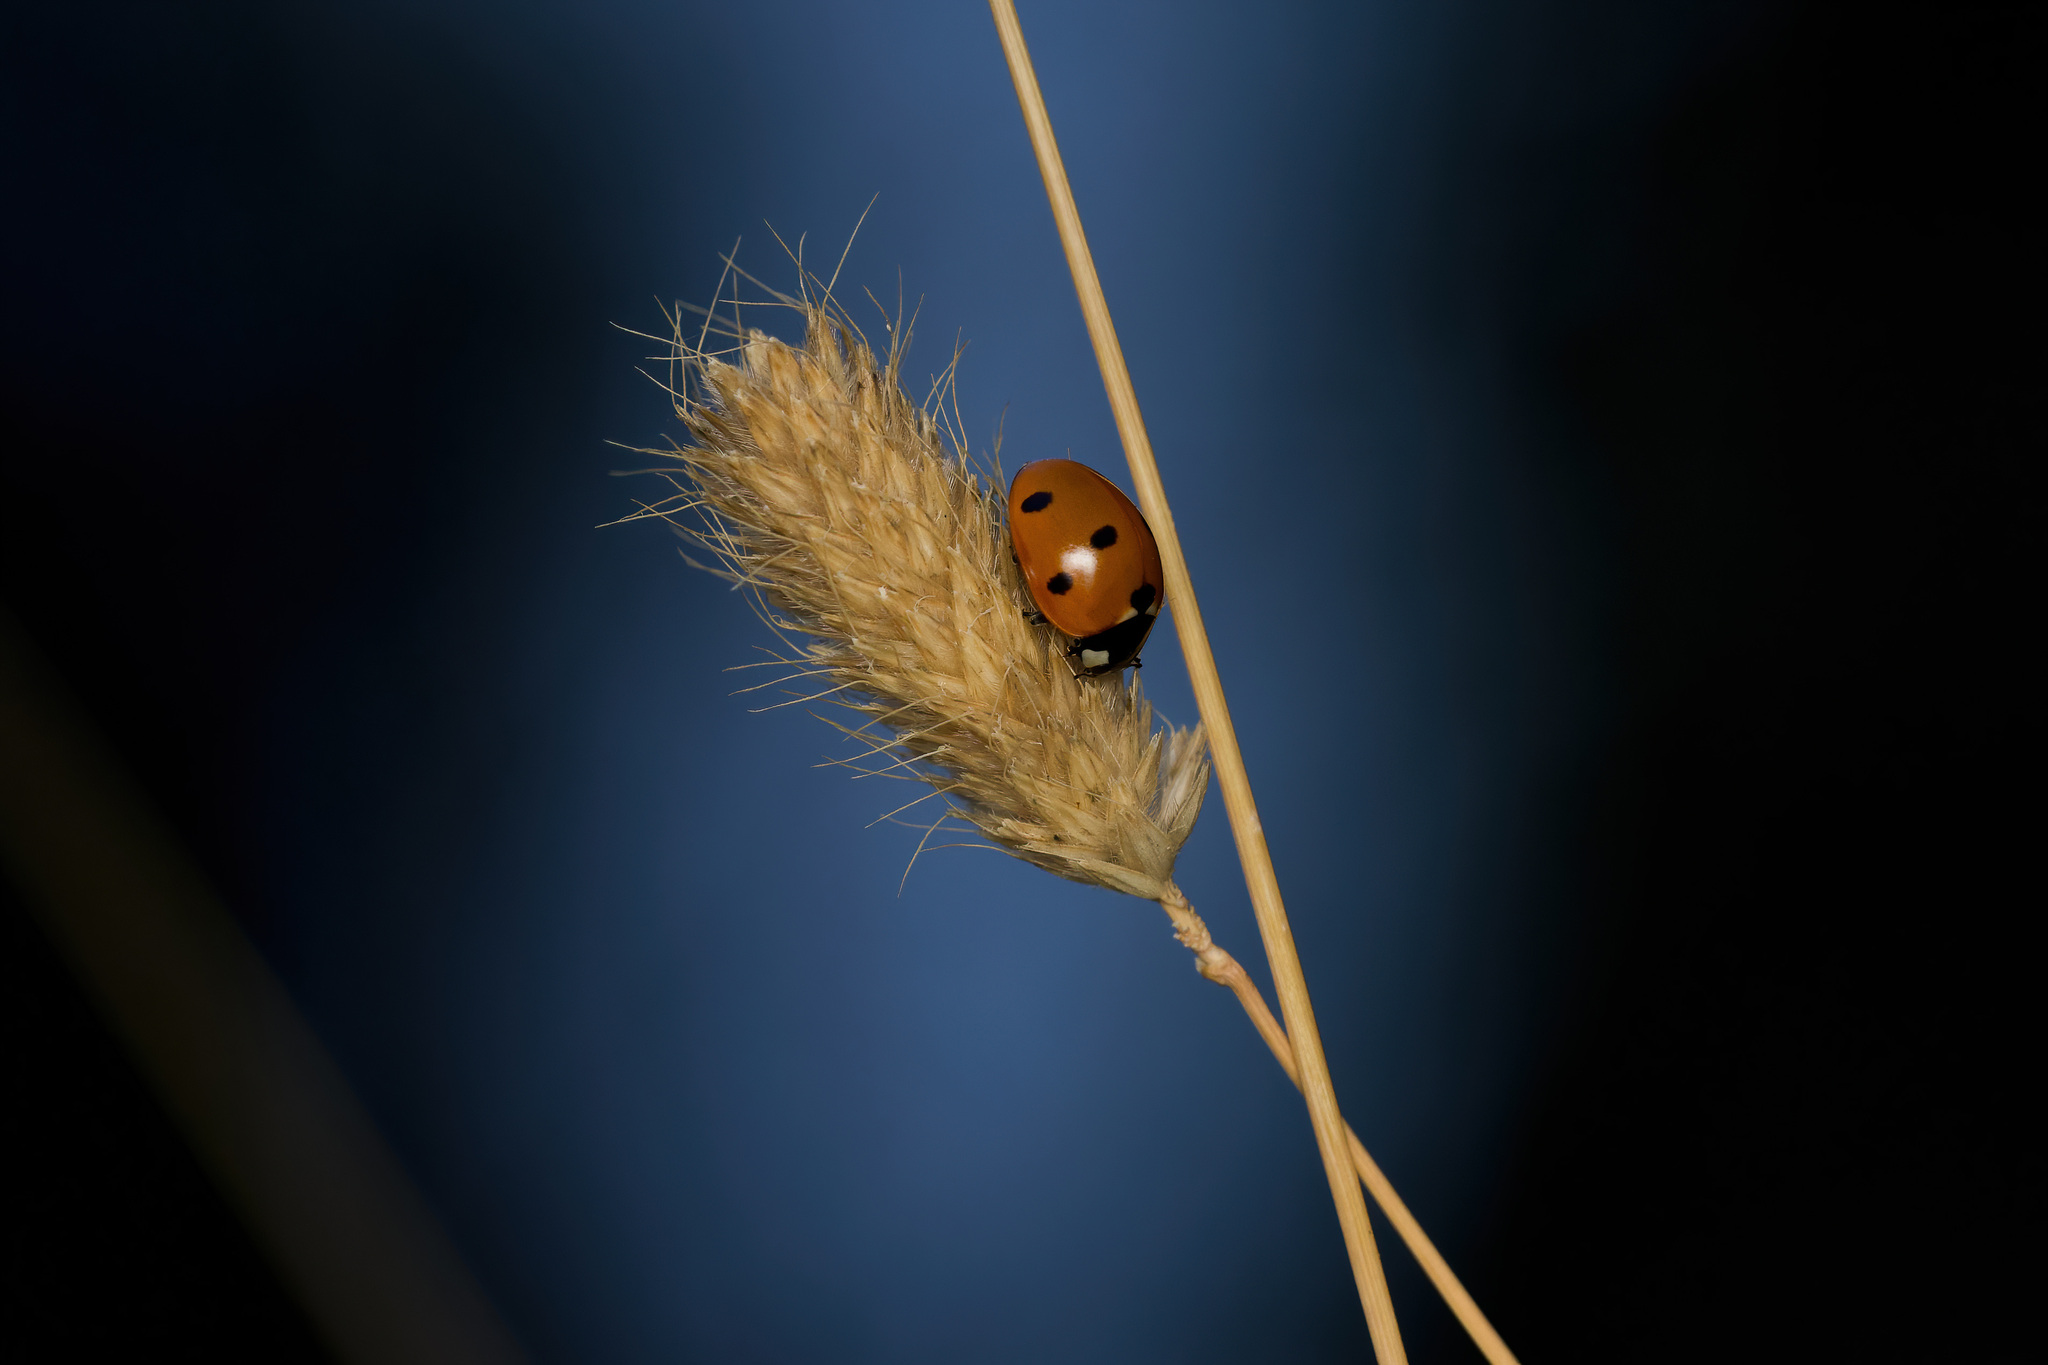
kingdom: Animalia
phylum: Arthropoda
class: Insecta
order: Coleoptera
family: Coccinellidae
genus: Coccinella
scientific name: Coccinella septempunctata
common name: Sevenspotted lady beetle
